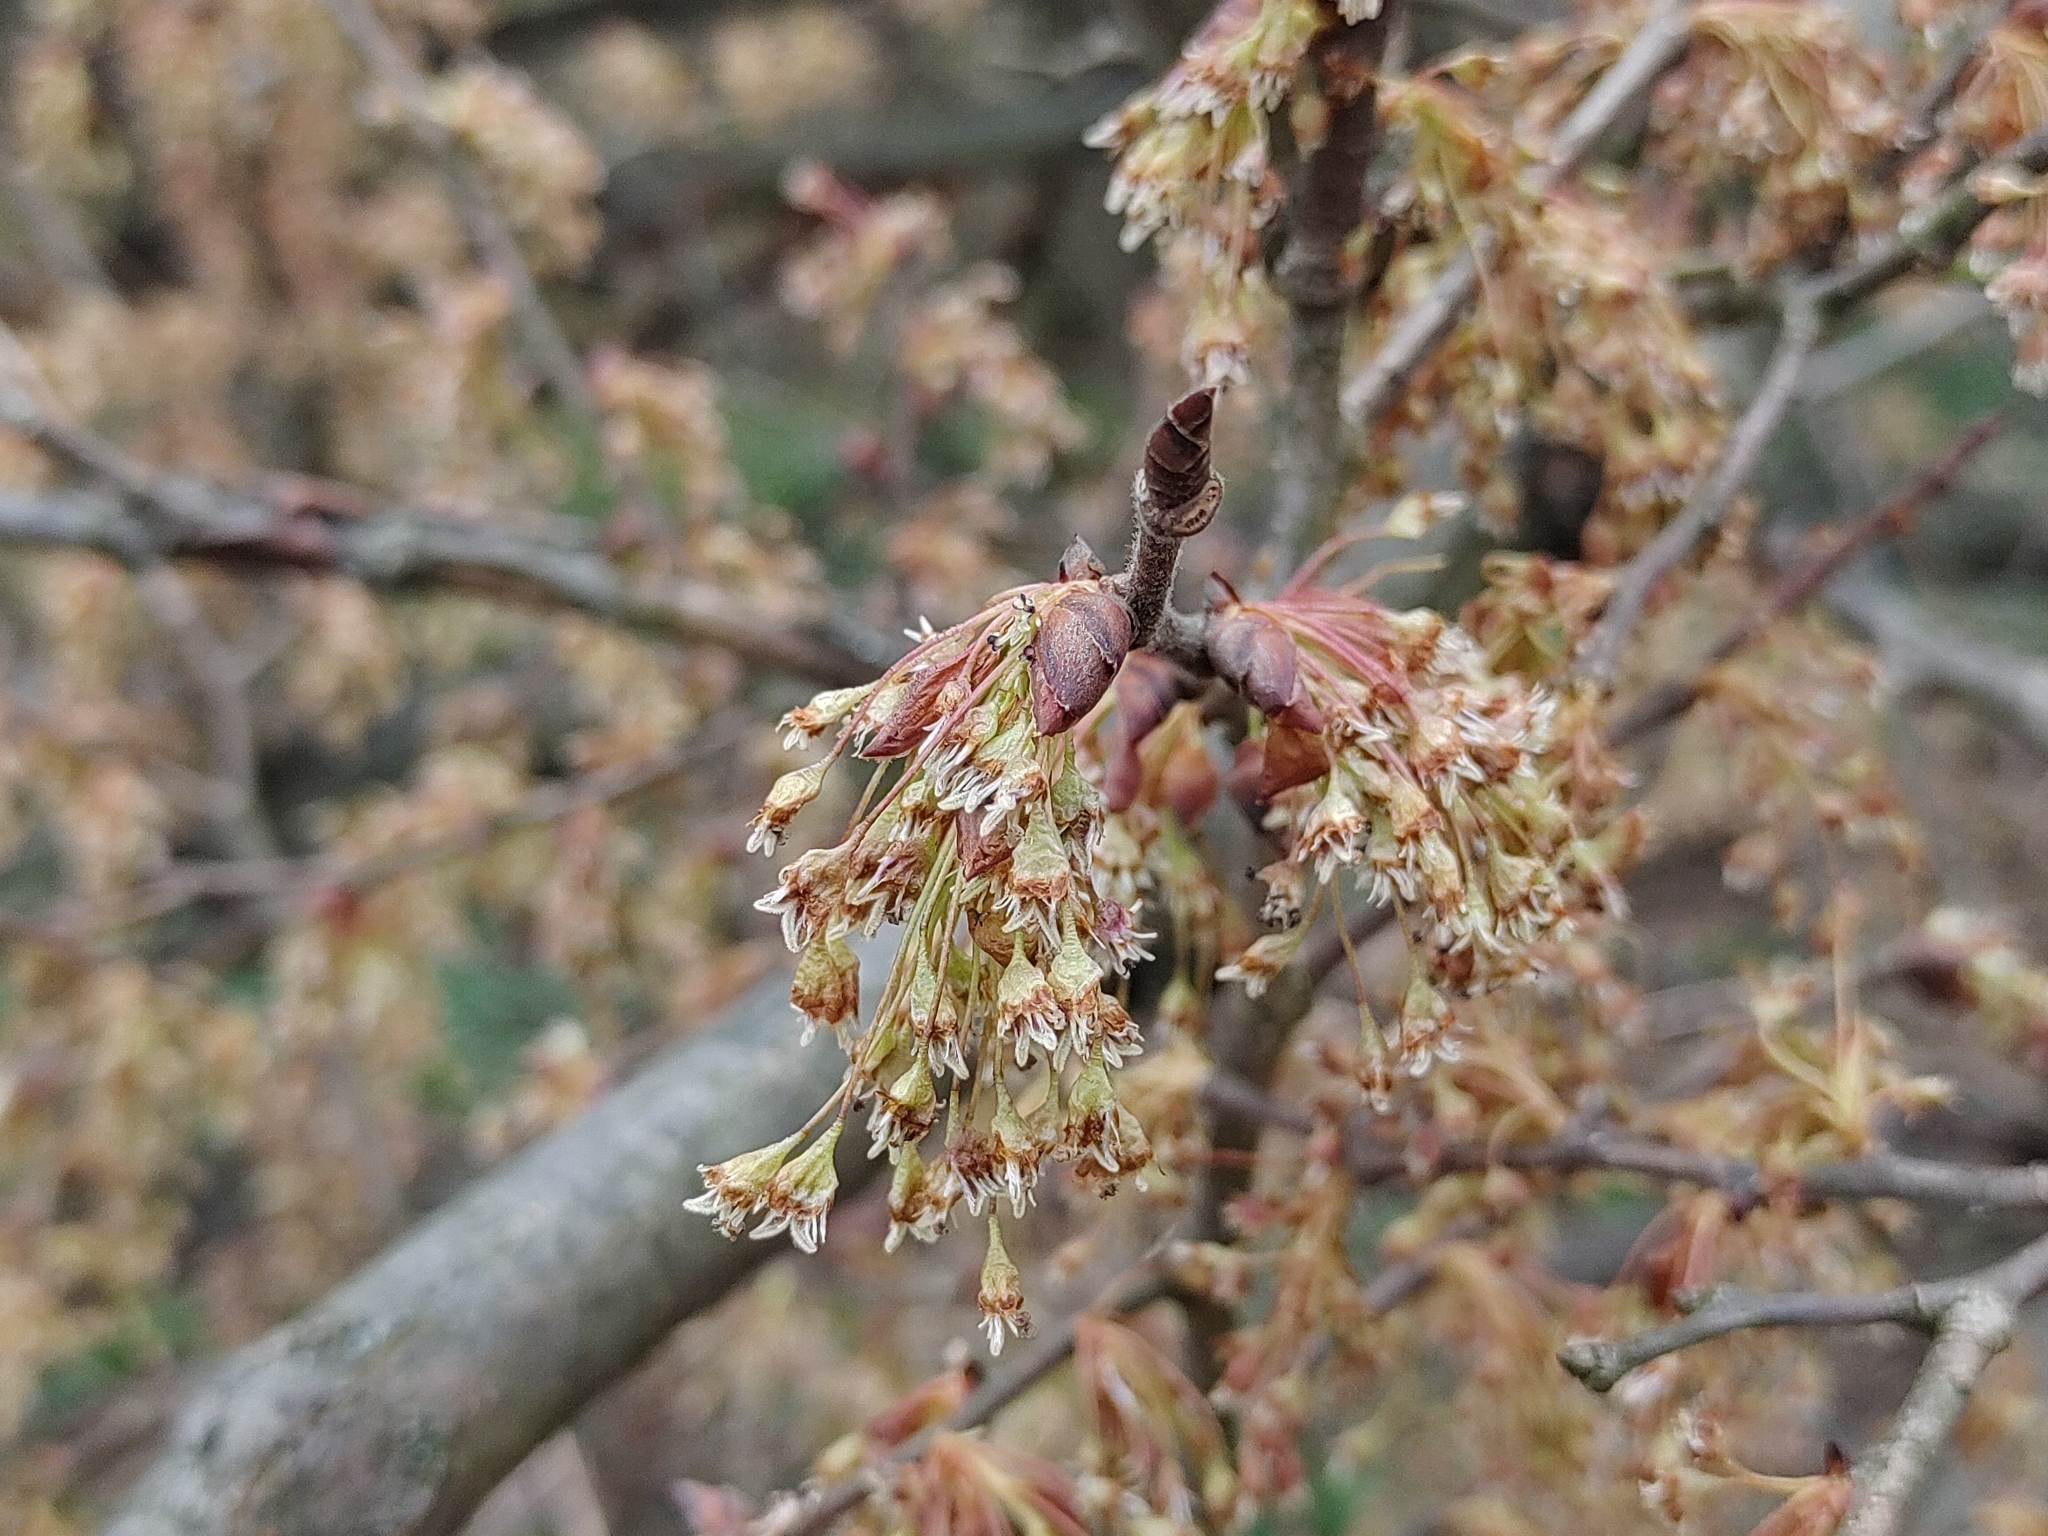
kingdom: Plantae
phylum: Tracheophyta
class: Magnoliopsida
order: Sapindales
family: Sapindaceae
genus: Acer
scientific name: Acer negundo
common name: Ashleaf maple
